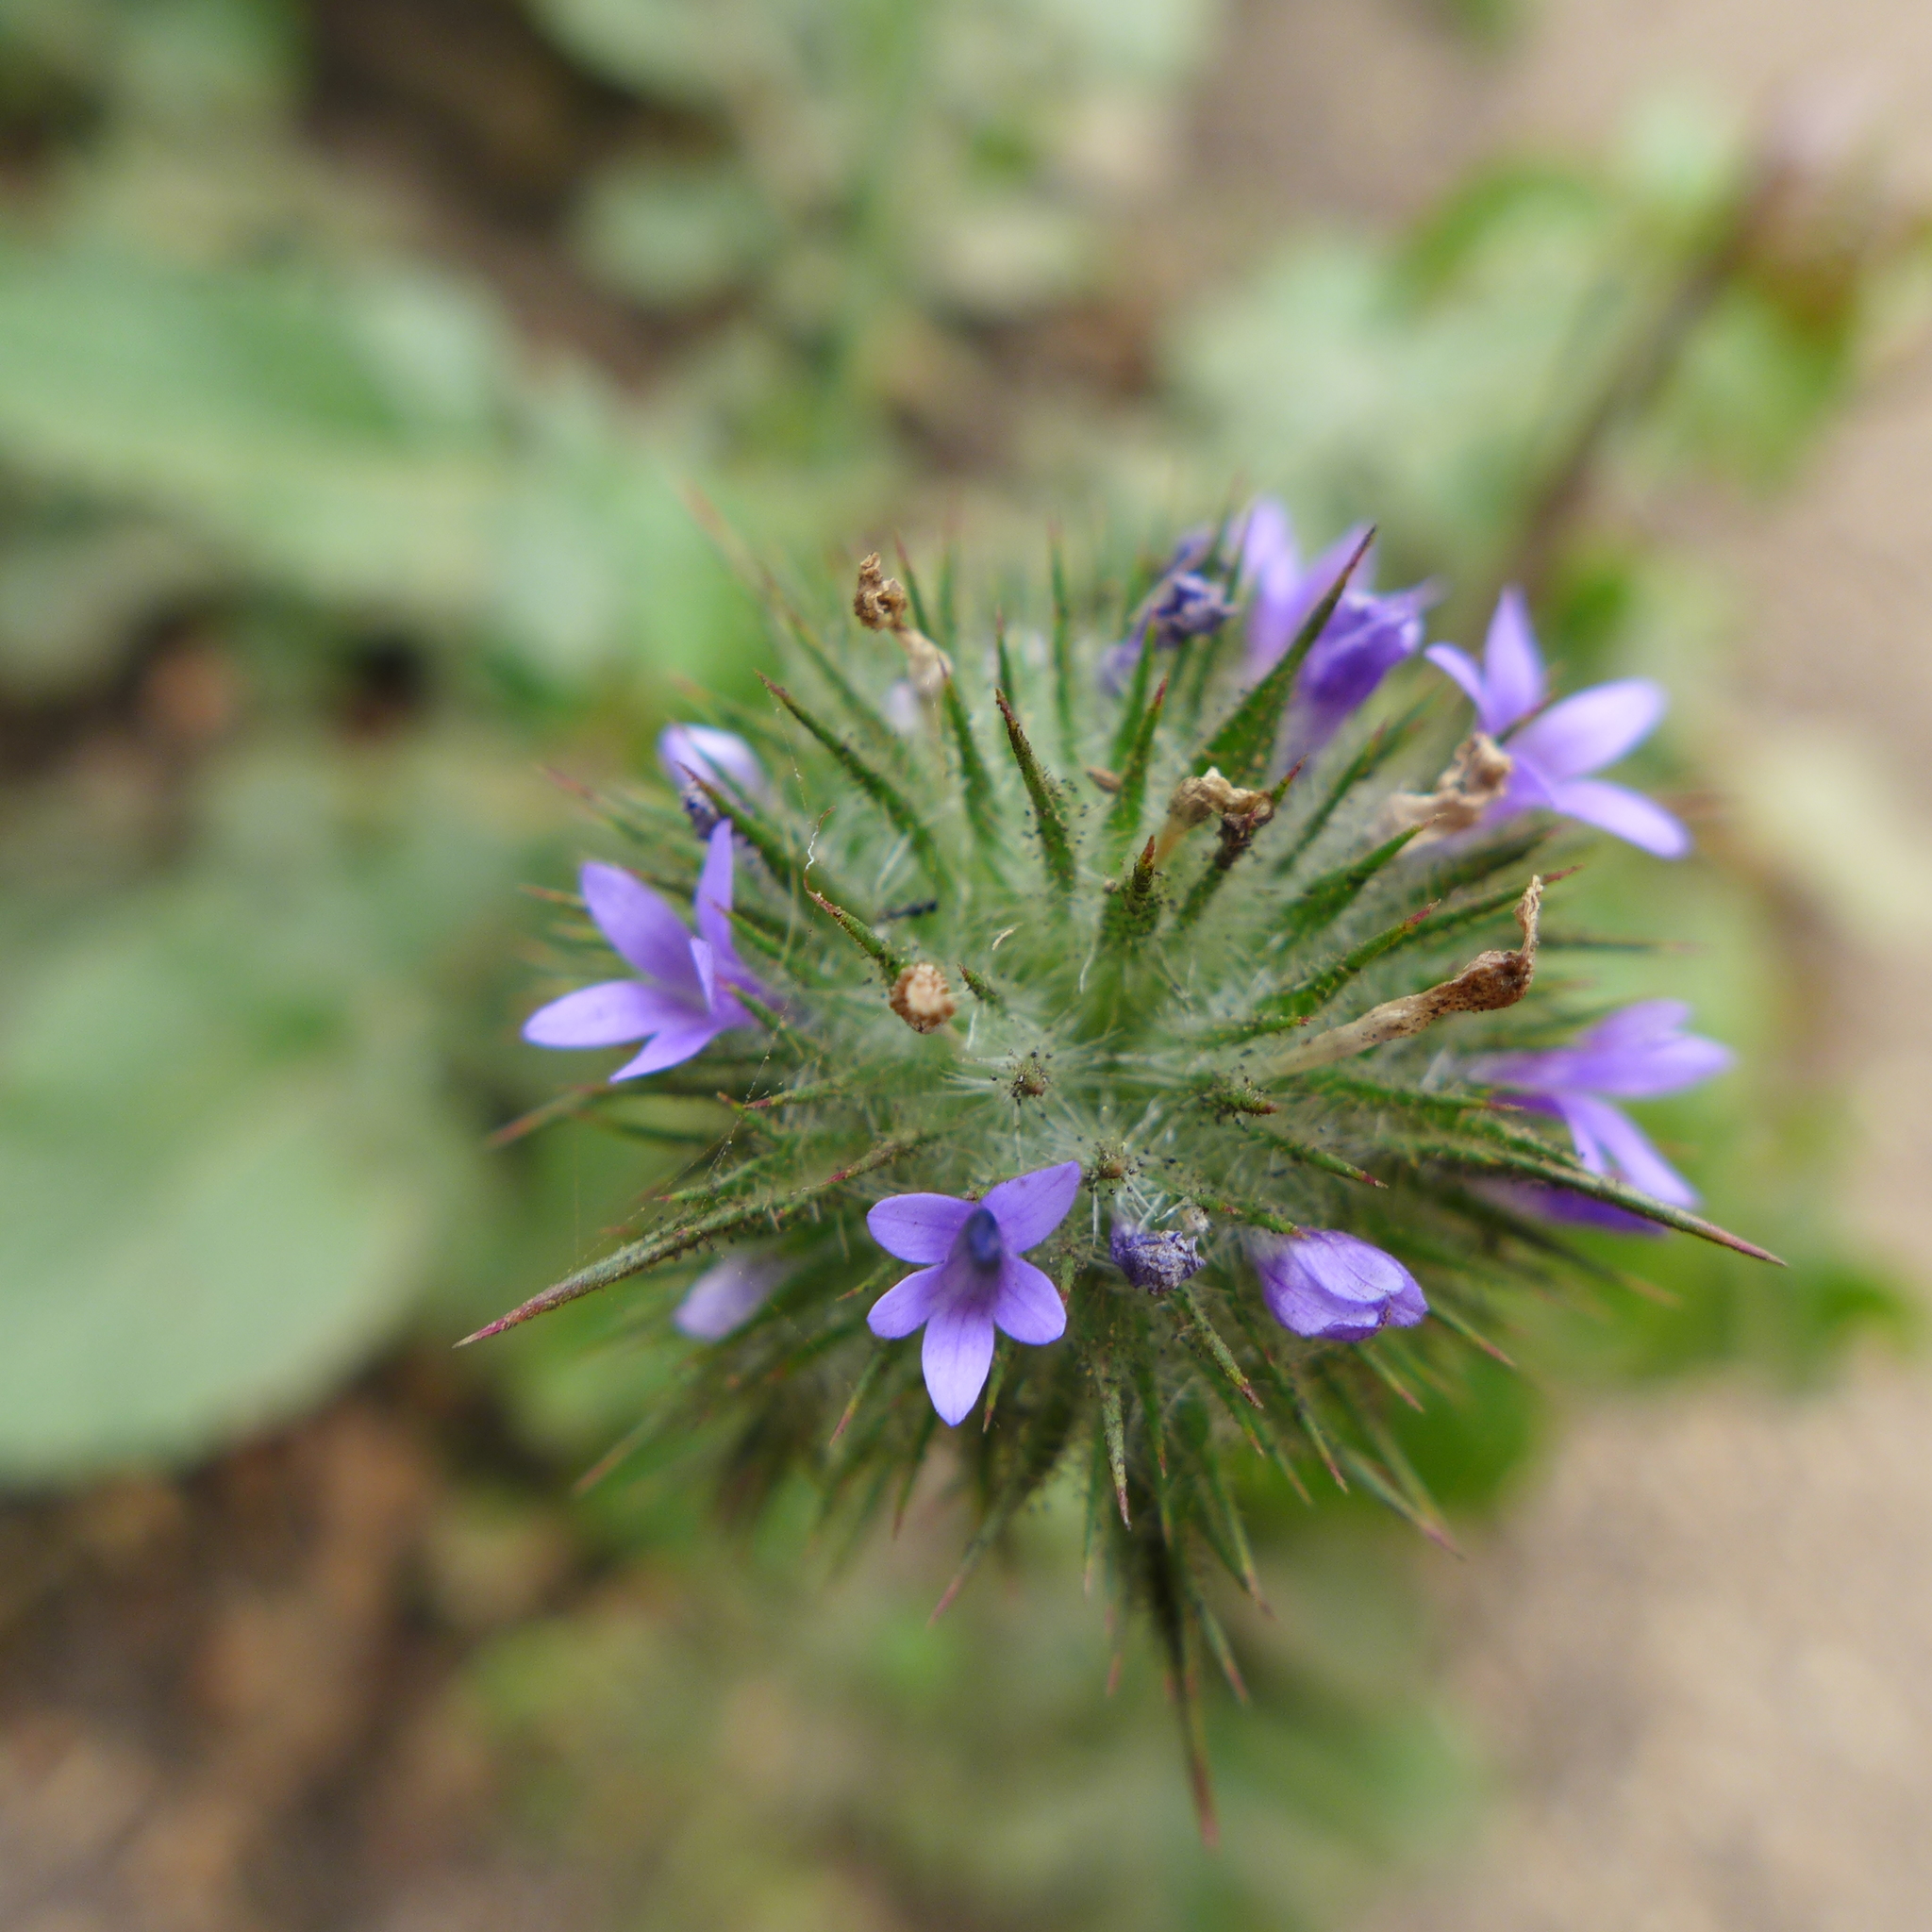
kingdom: Plantae
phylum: Tracheophyta
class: Magnoliopsida
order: Ericales
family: Polemoniaceae
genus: Navarretia
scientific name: Navarretia squarrosa
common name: Skunkweed
